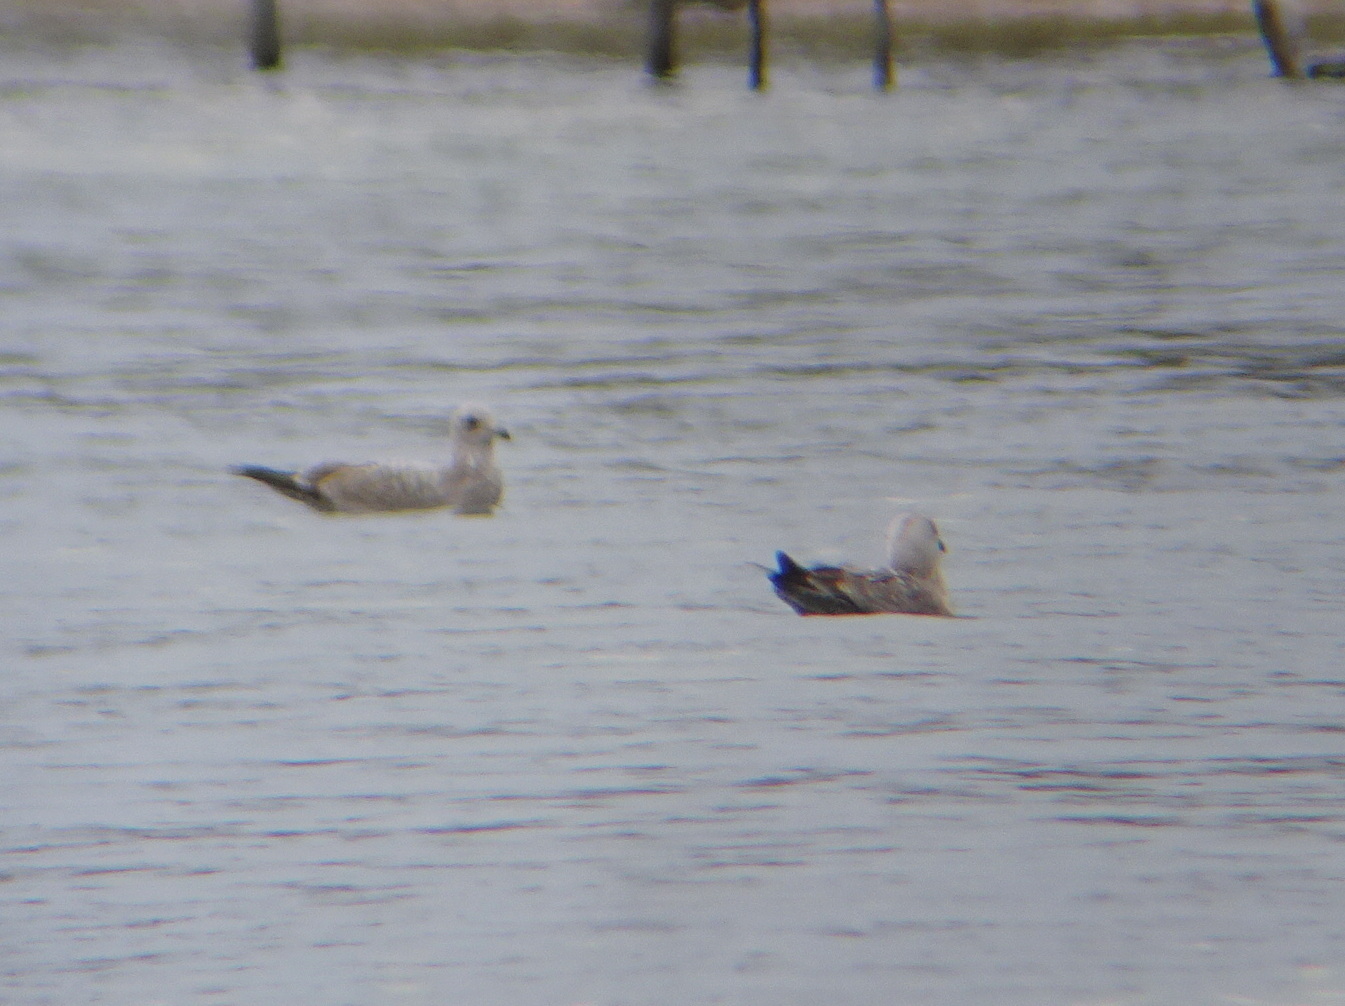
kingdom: Animalia
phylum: Chordata
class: Aves
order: Charadriiformes
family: Laridae
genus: Larus
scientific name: Larus argentatus
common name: Herring gull
